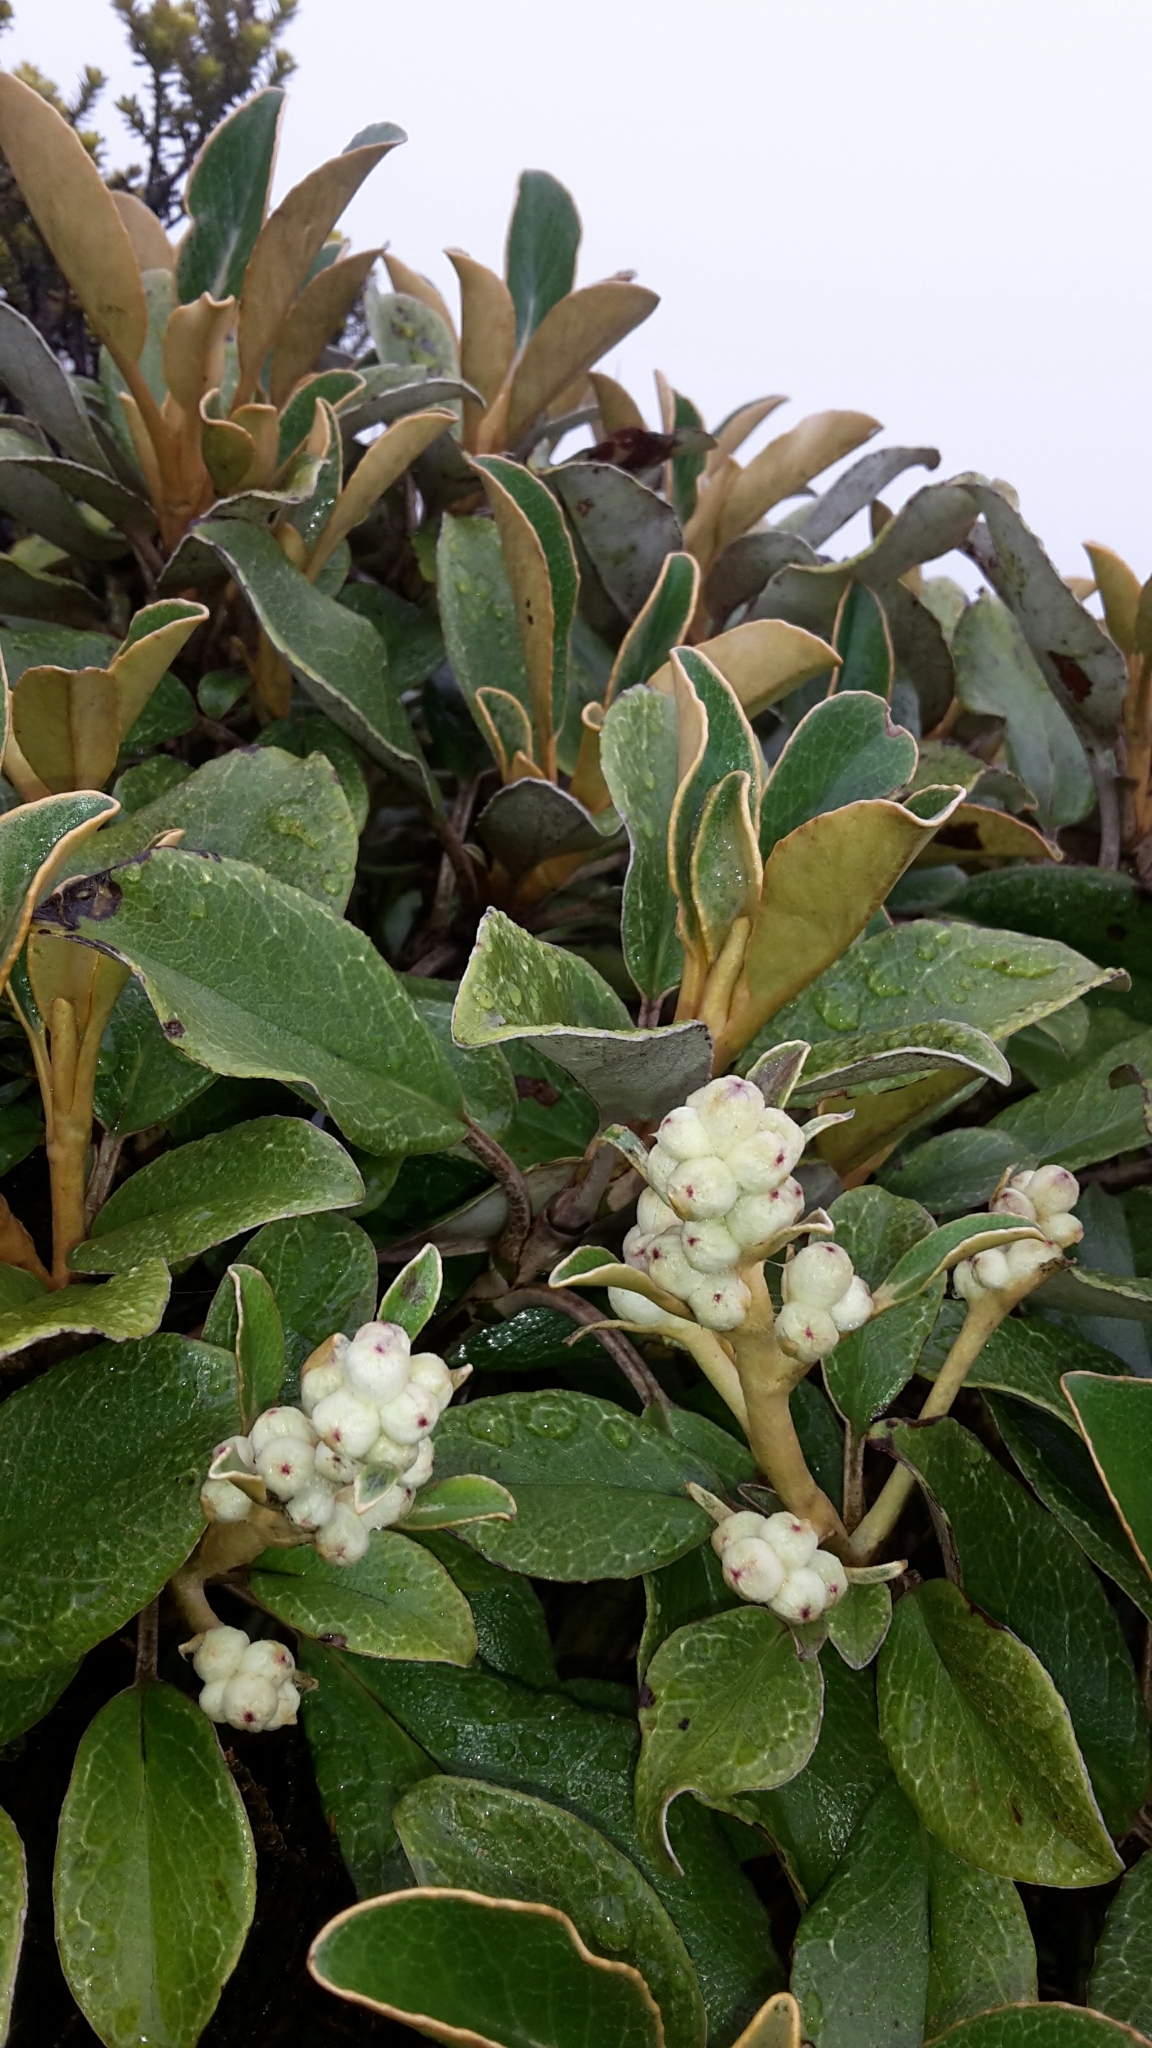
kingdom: Plantae
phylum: Tracheophyta
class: Magnoliopsida
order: Asterales
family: Asteraceae
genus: Brachyglottis
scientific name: Brachyglottis elaeagnifolia
